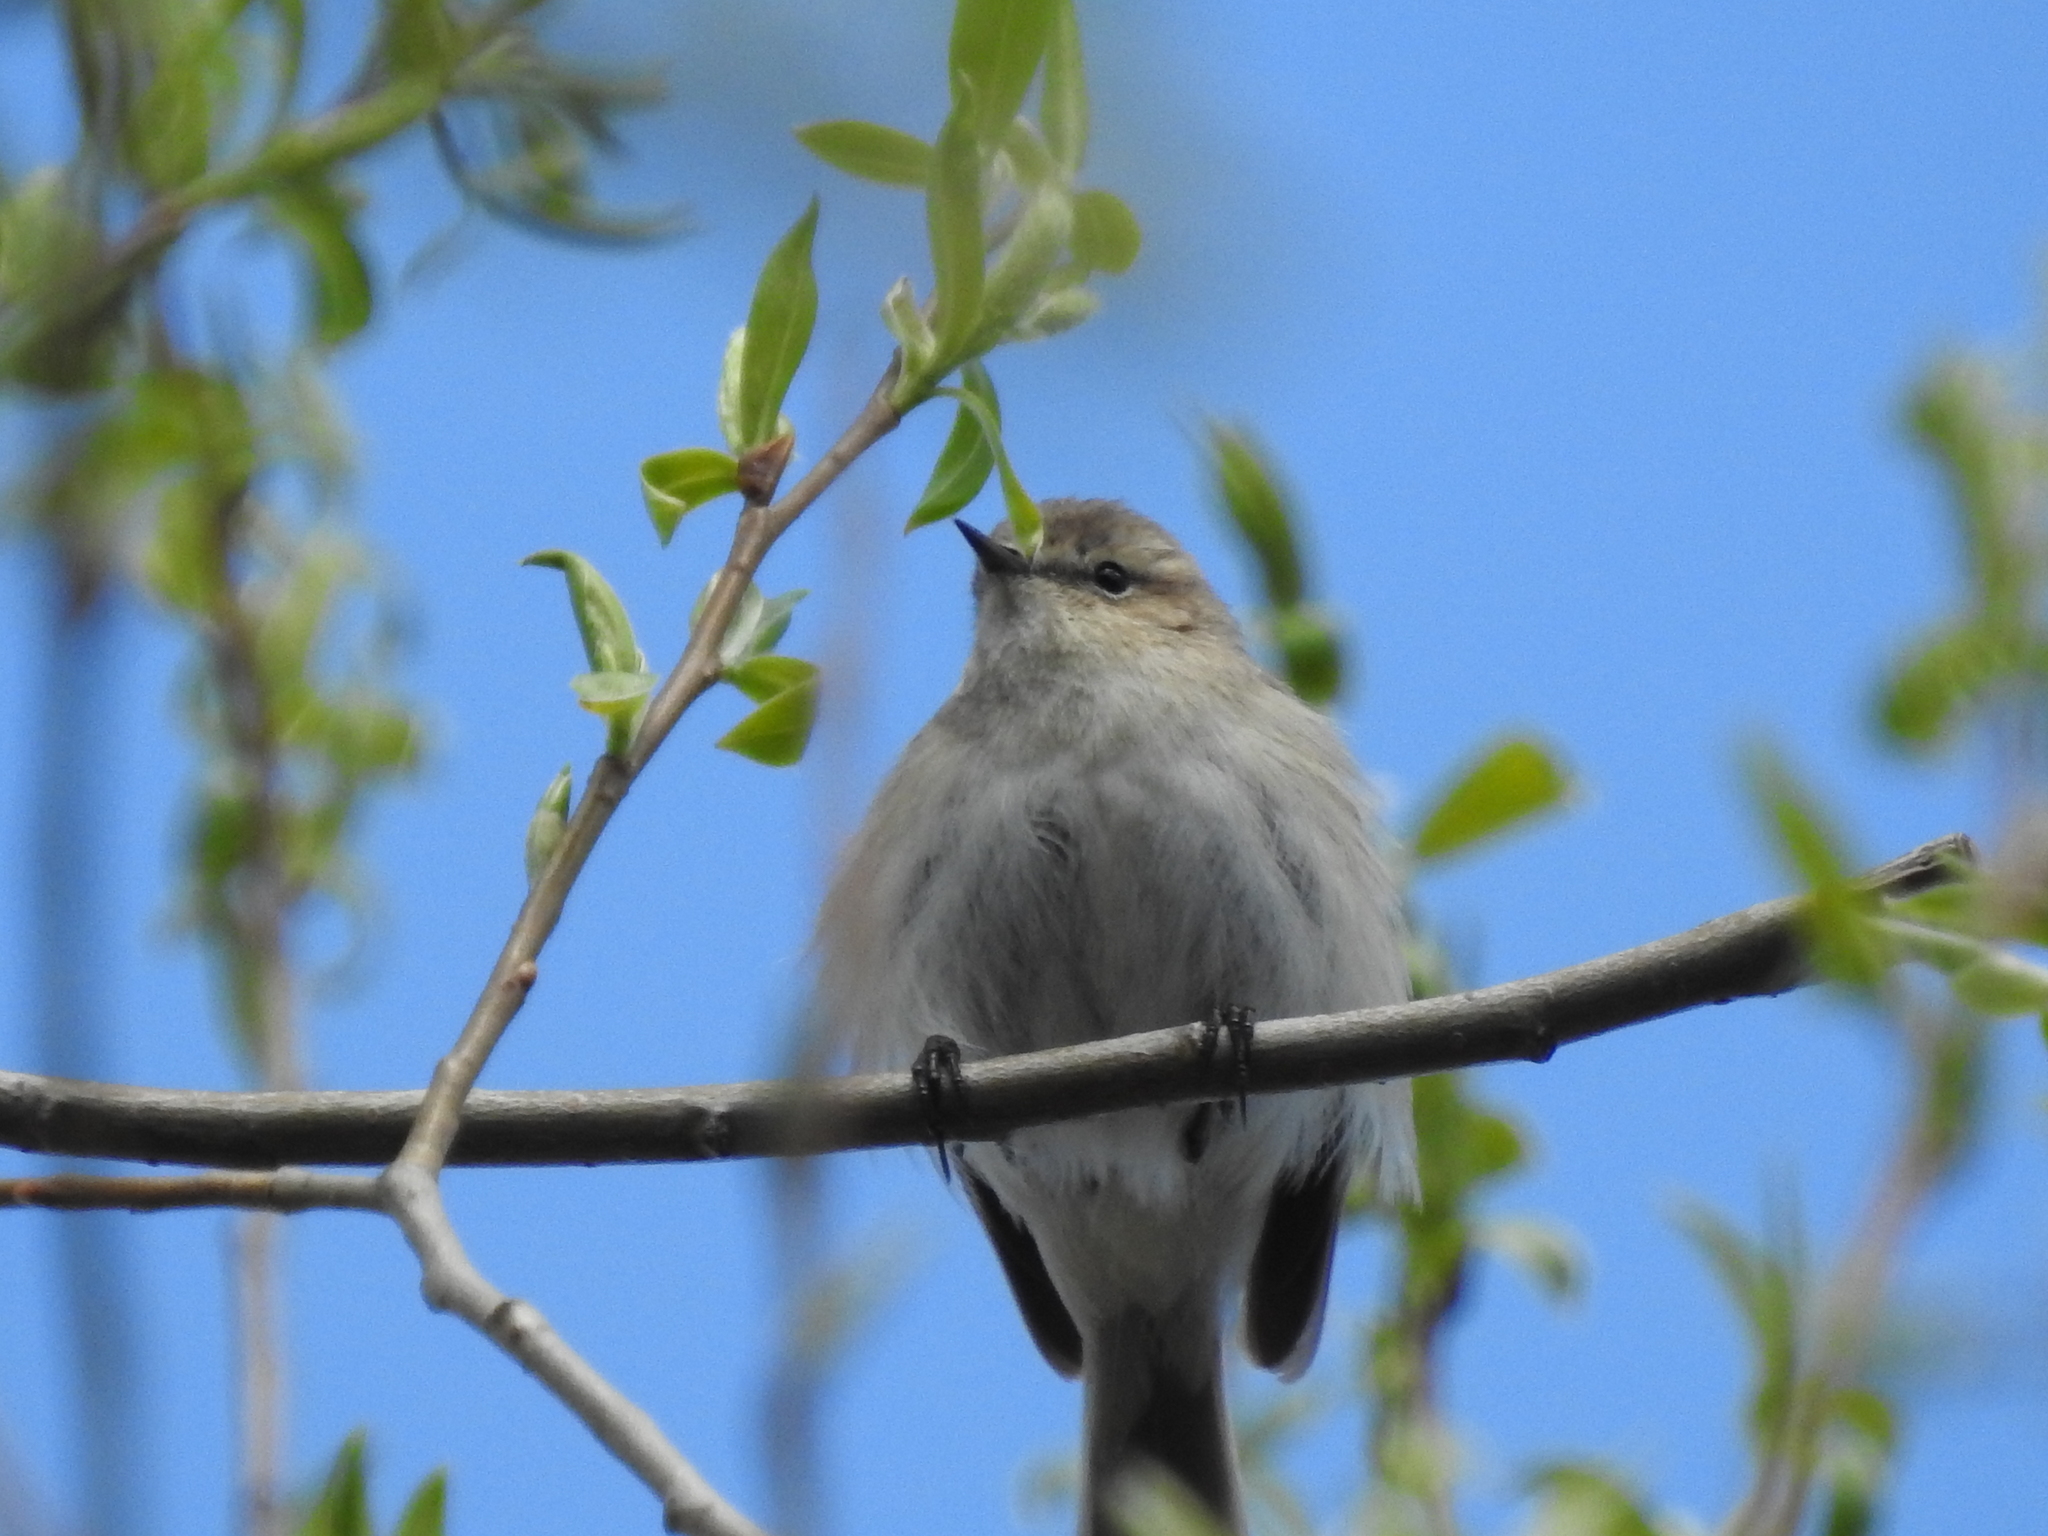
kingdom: Animalia
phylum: Chordata
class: Aves
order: Passeriformes
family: Phylloscopidae
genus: Phylloscopus
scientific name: Phylloscopus collybita
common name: Common chiffchaff
